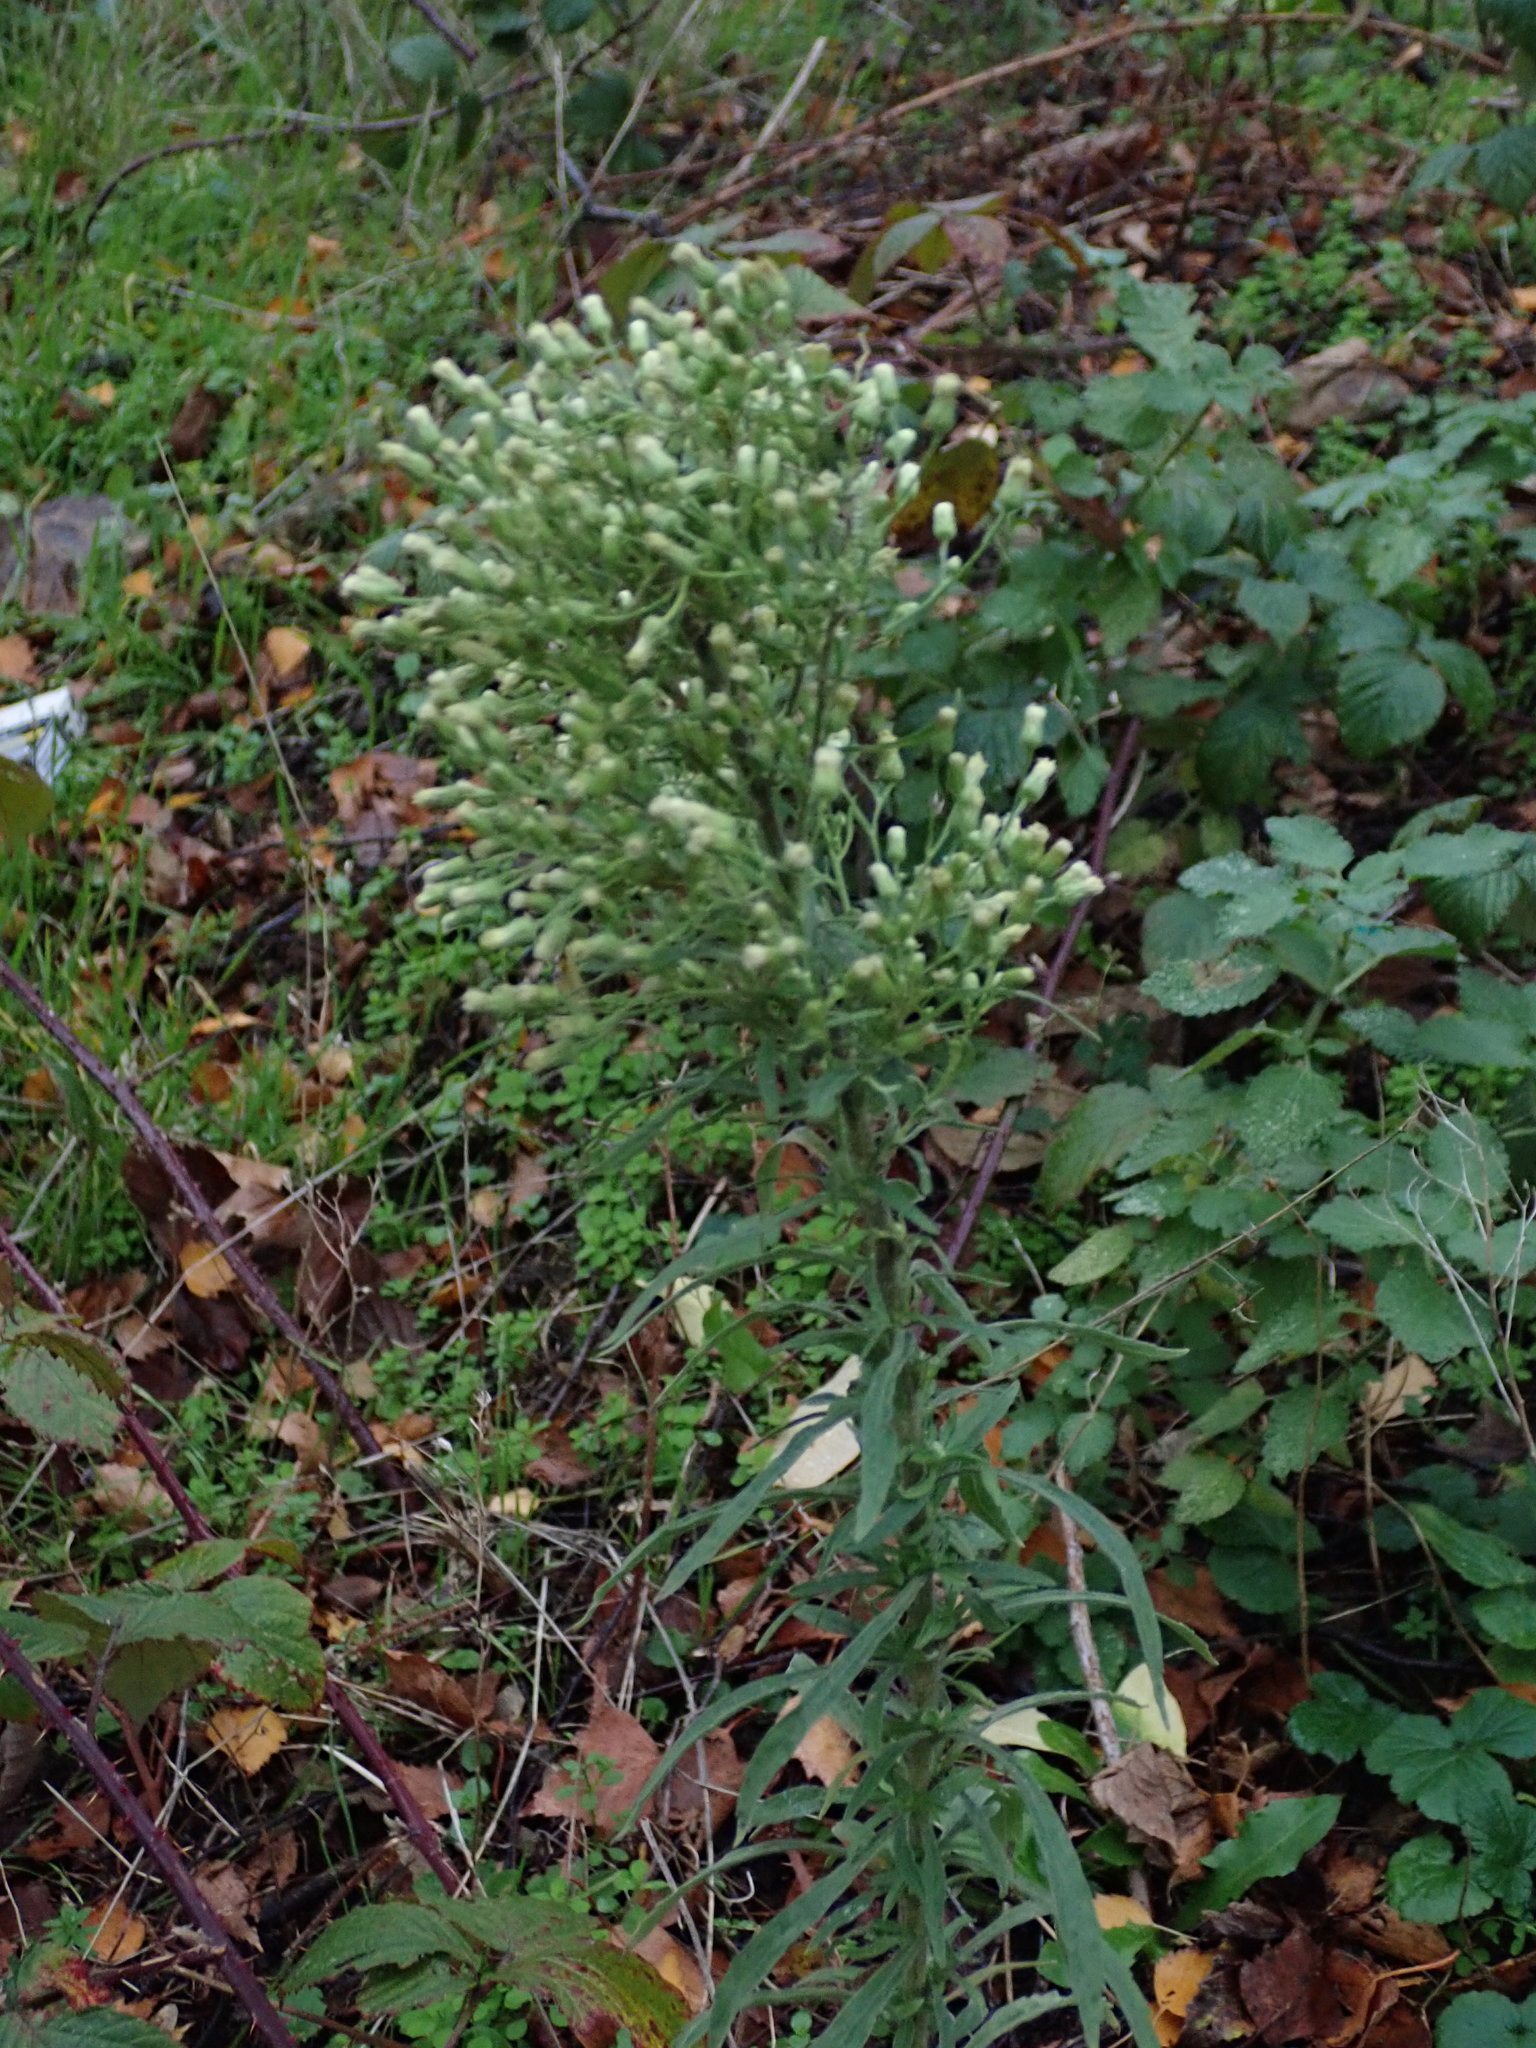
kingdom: Plantae
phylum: Tracheophyta
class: Magnoliopsida
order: Asterales
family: Asteraceae
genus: Erigeron
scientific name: Erigeron sumatrensis
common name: Daisy
